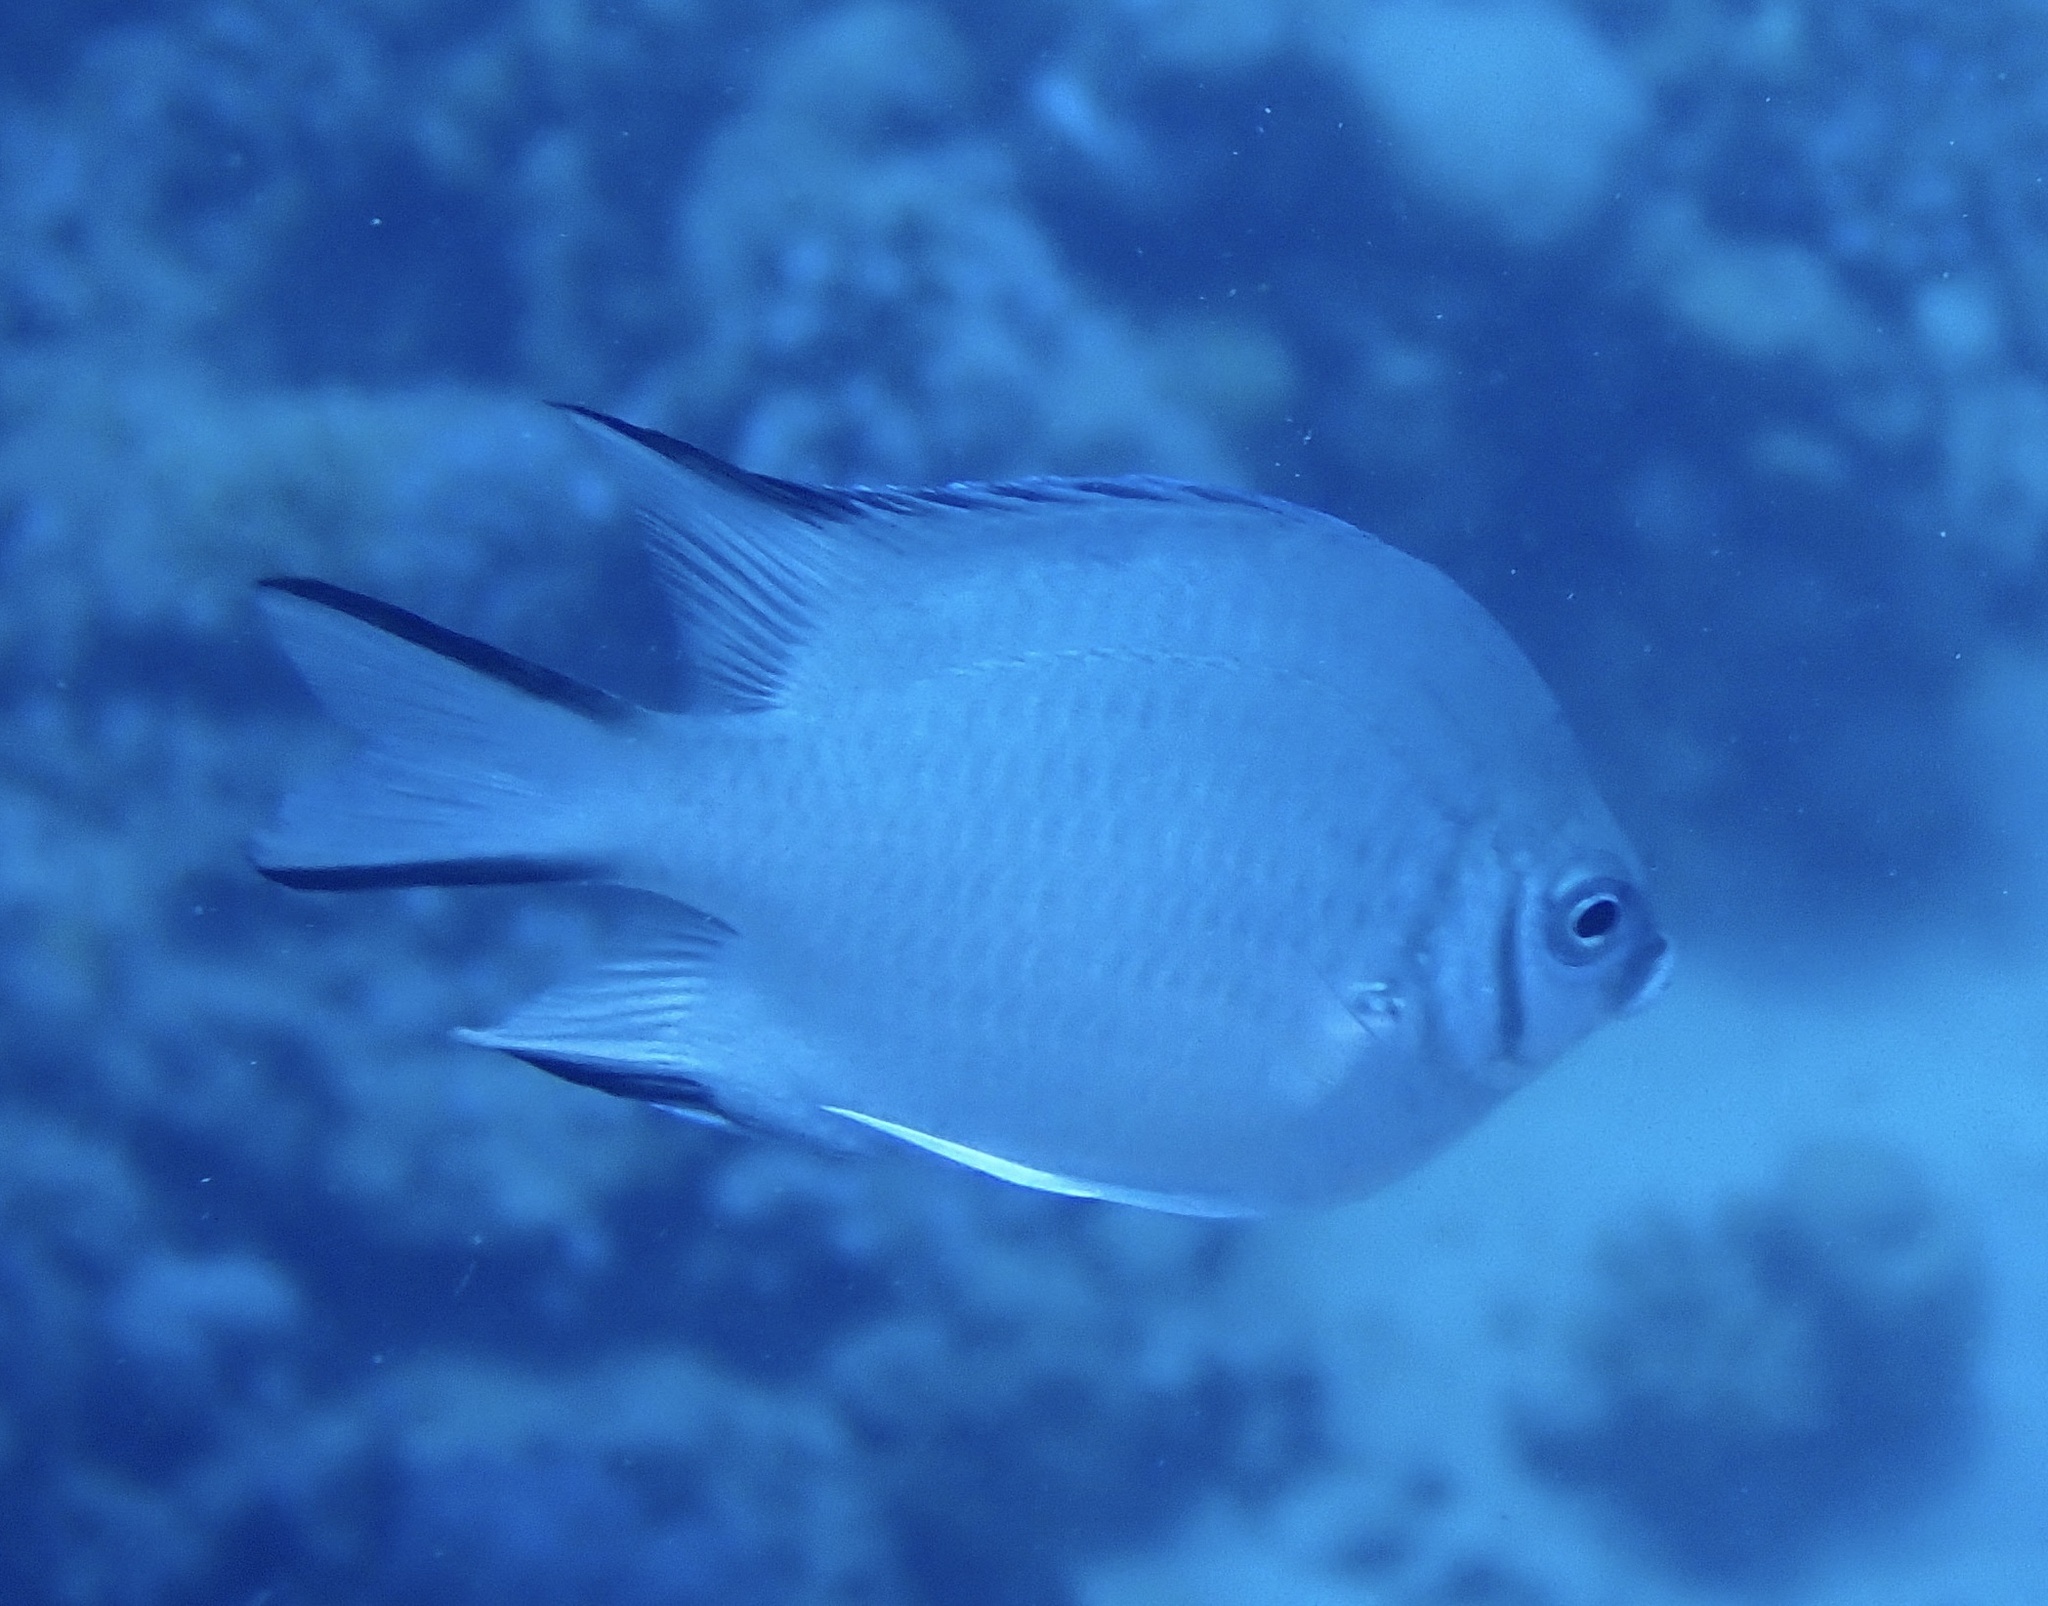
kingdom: Animalia
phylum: Chordata
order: Perciformes
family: Pomacentridae
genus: Amblyglyphidodon
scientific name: Amblyglyphidodon indicus
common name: Maldives damselfish
